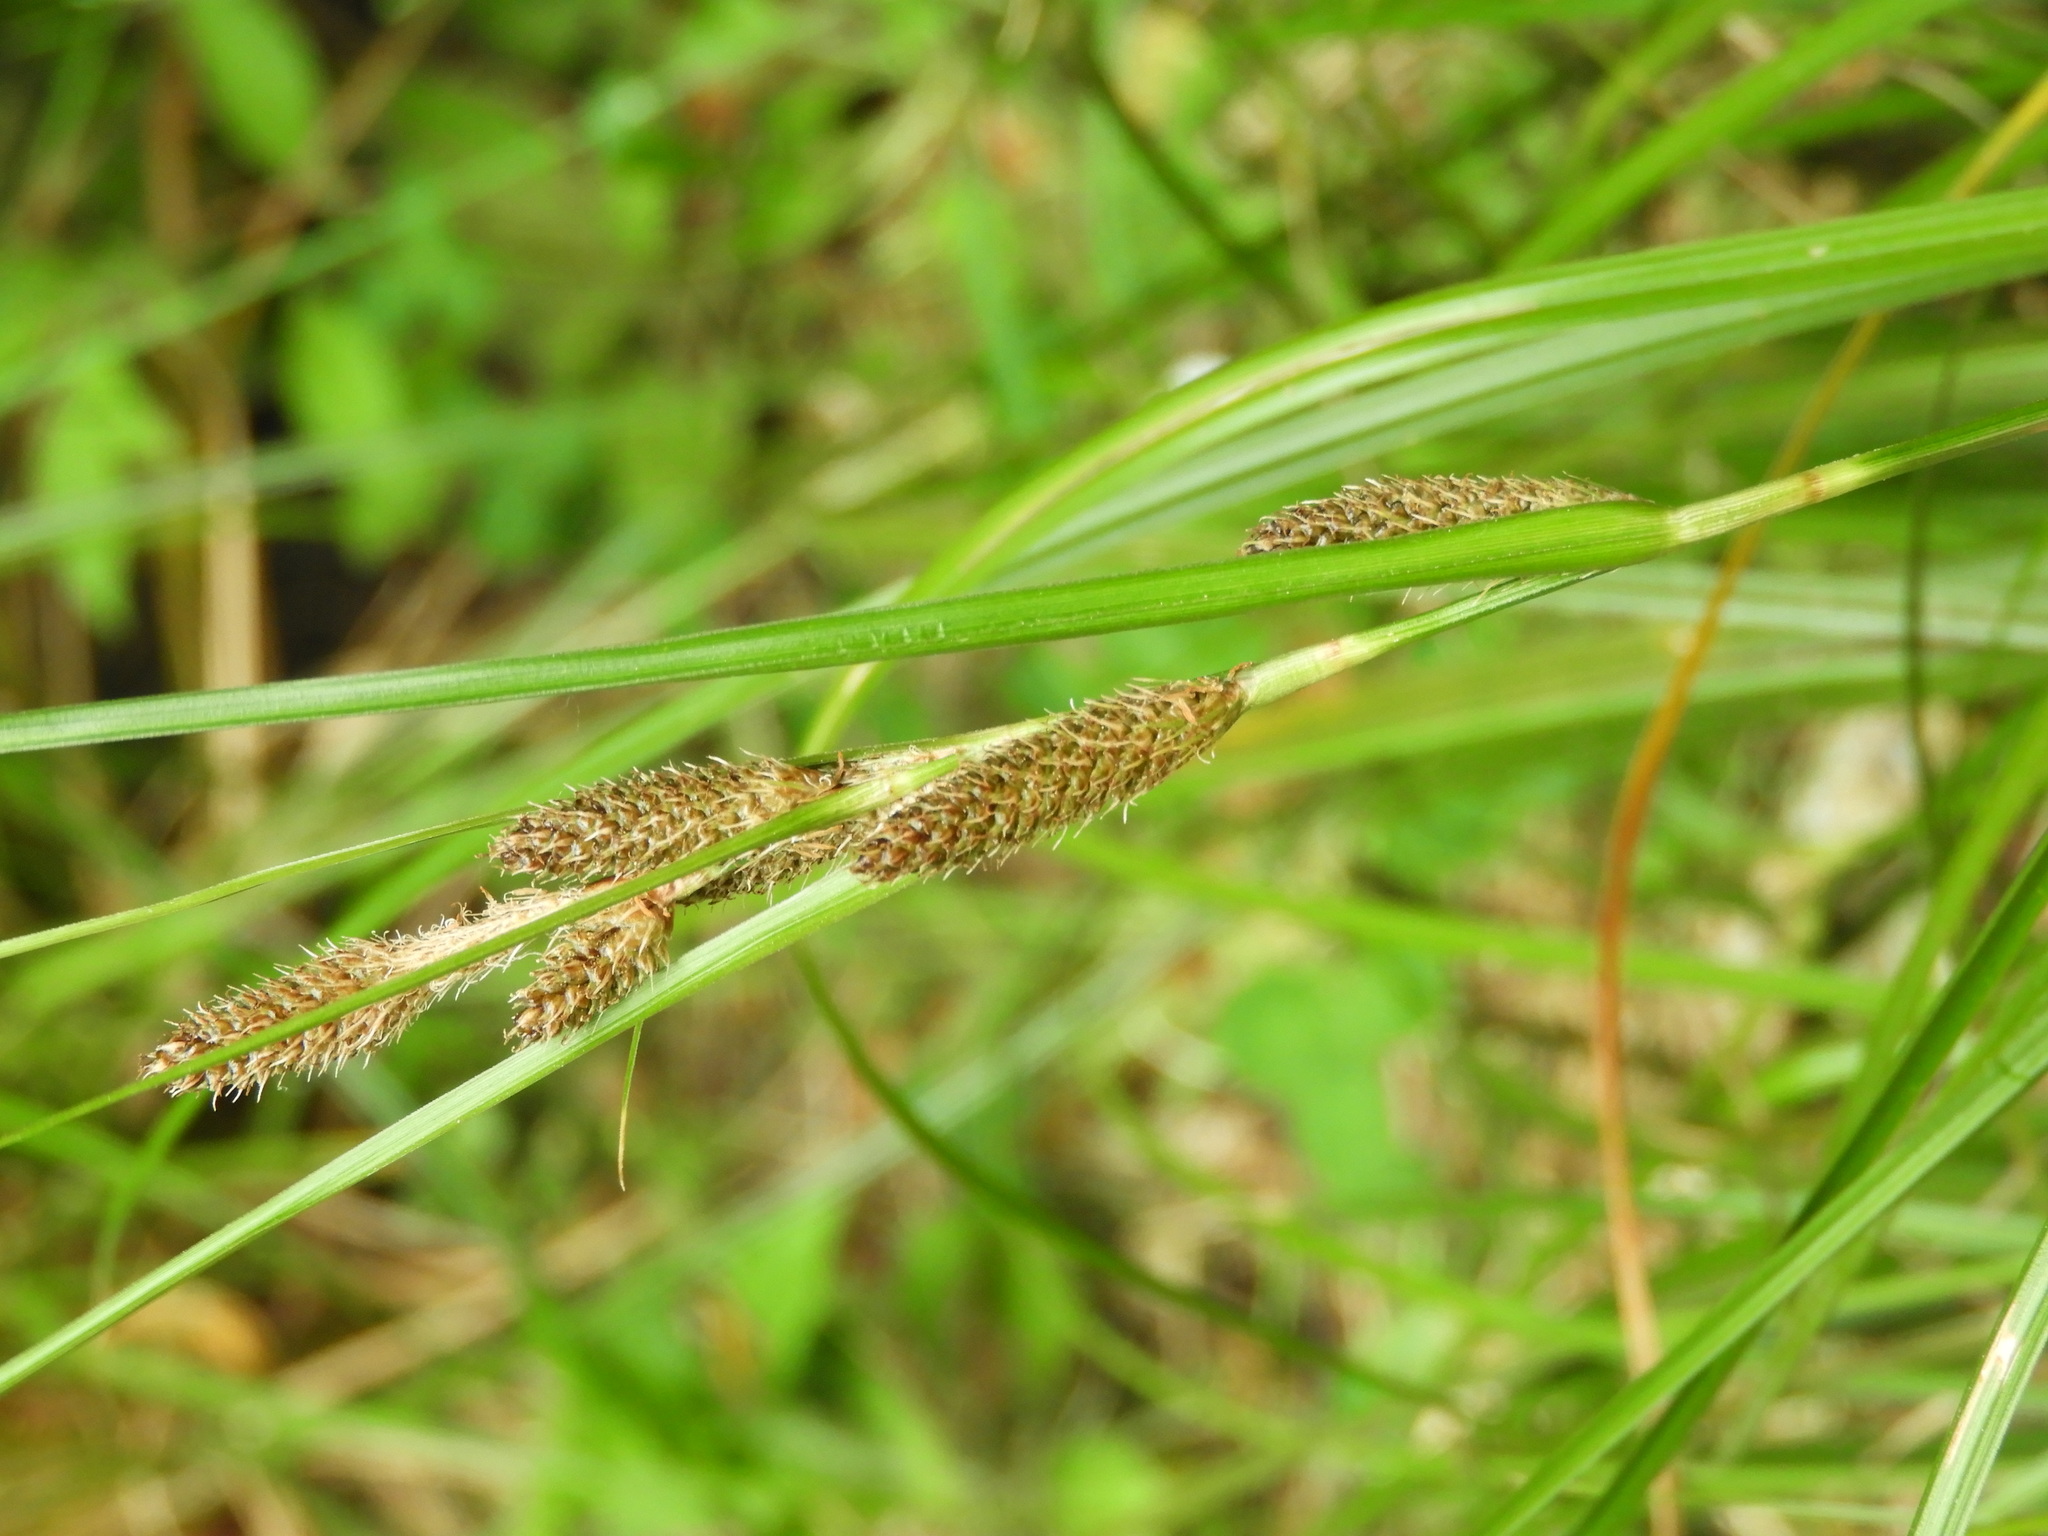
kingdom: Plantae
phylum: Tracheophyta
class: Liliopsida
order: Poales
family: Cyperaceae
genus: Carex
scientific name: Carex raoulii
